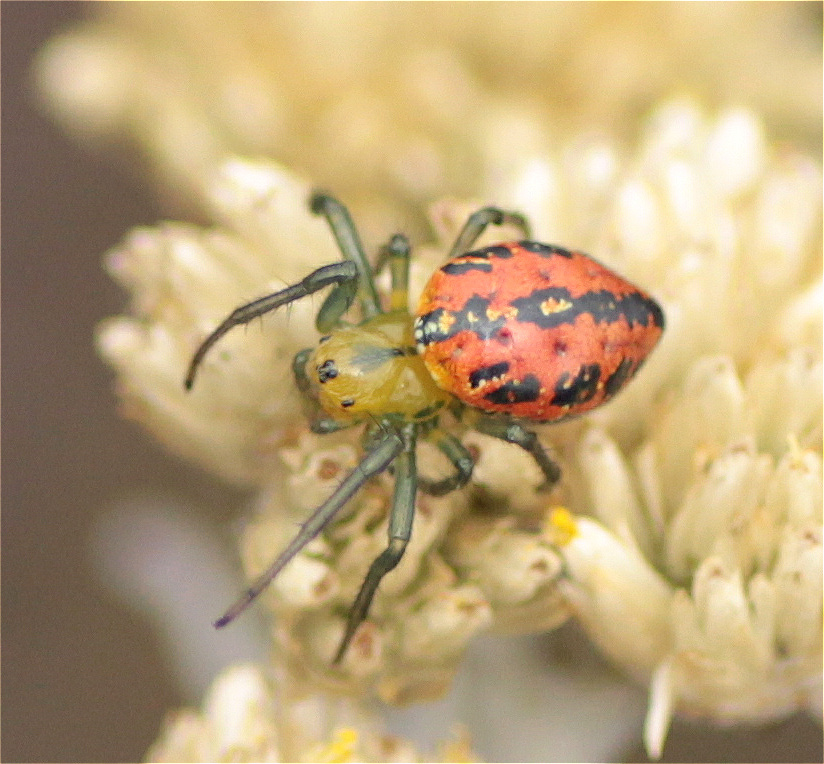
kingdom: Animalia
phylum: Arthropoda
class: Arachnida
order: Araneae
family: Araneidae
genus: Alpaida
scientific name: Alpaida variabilis
